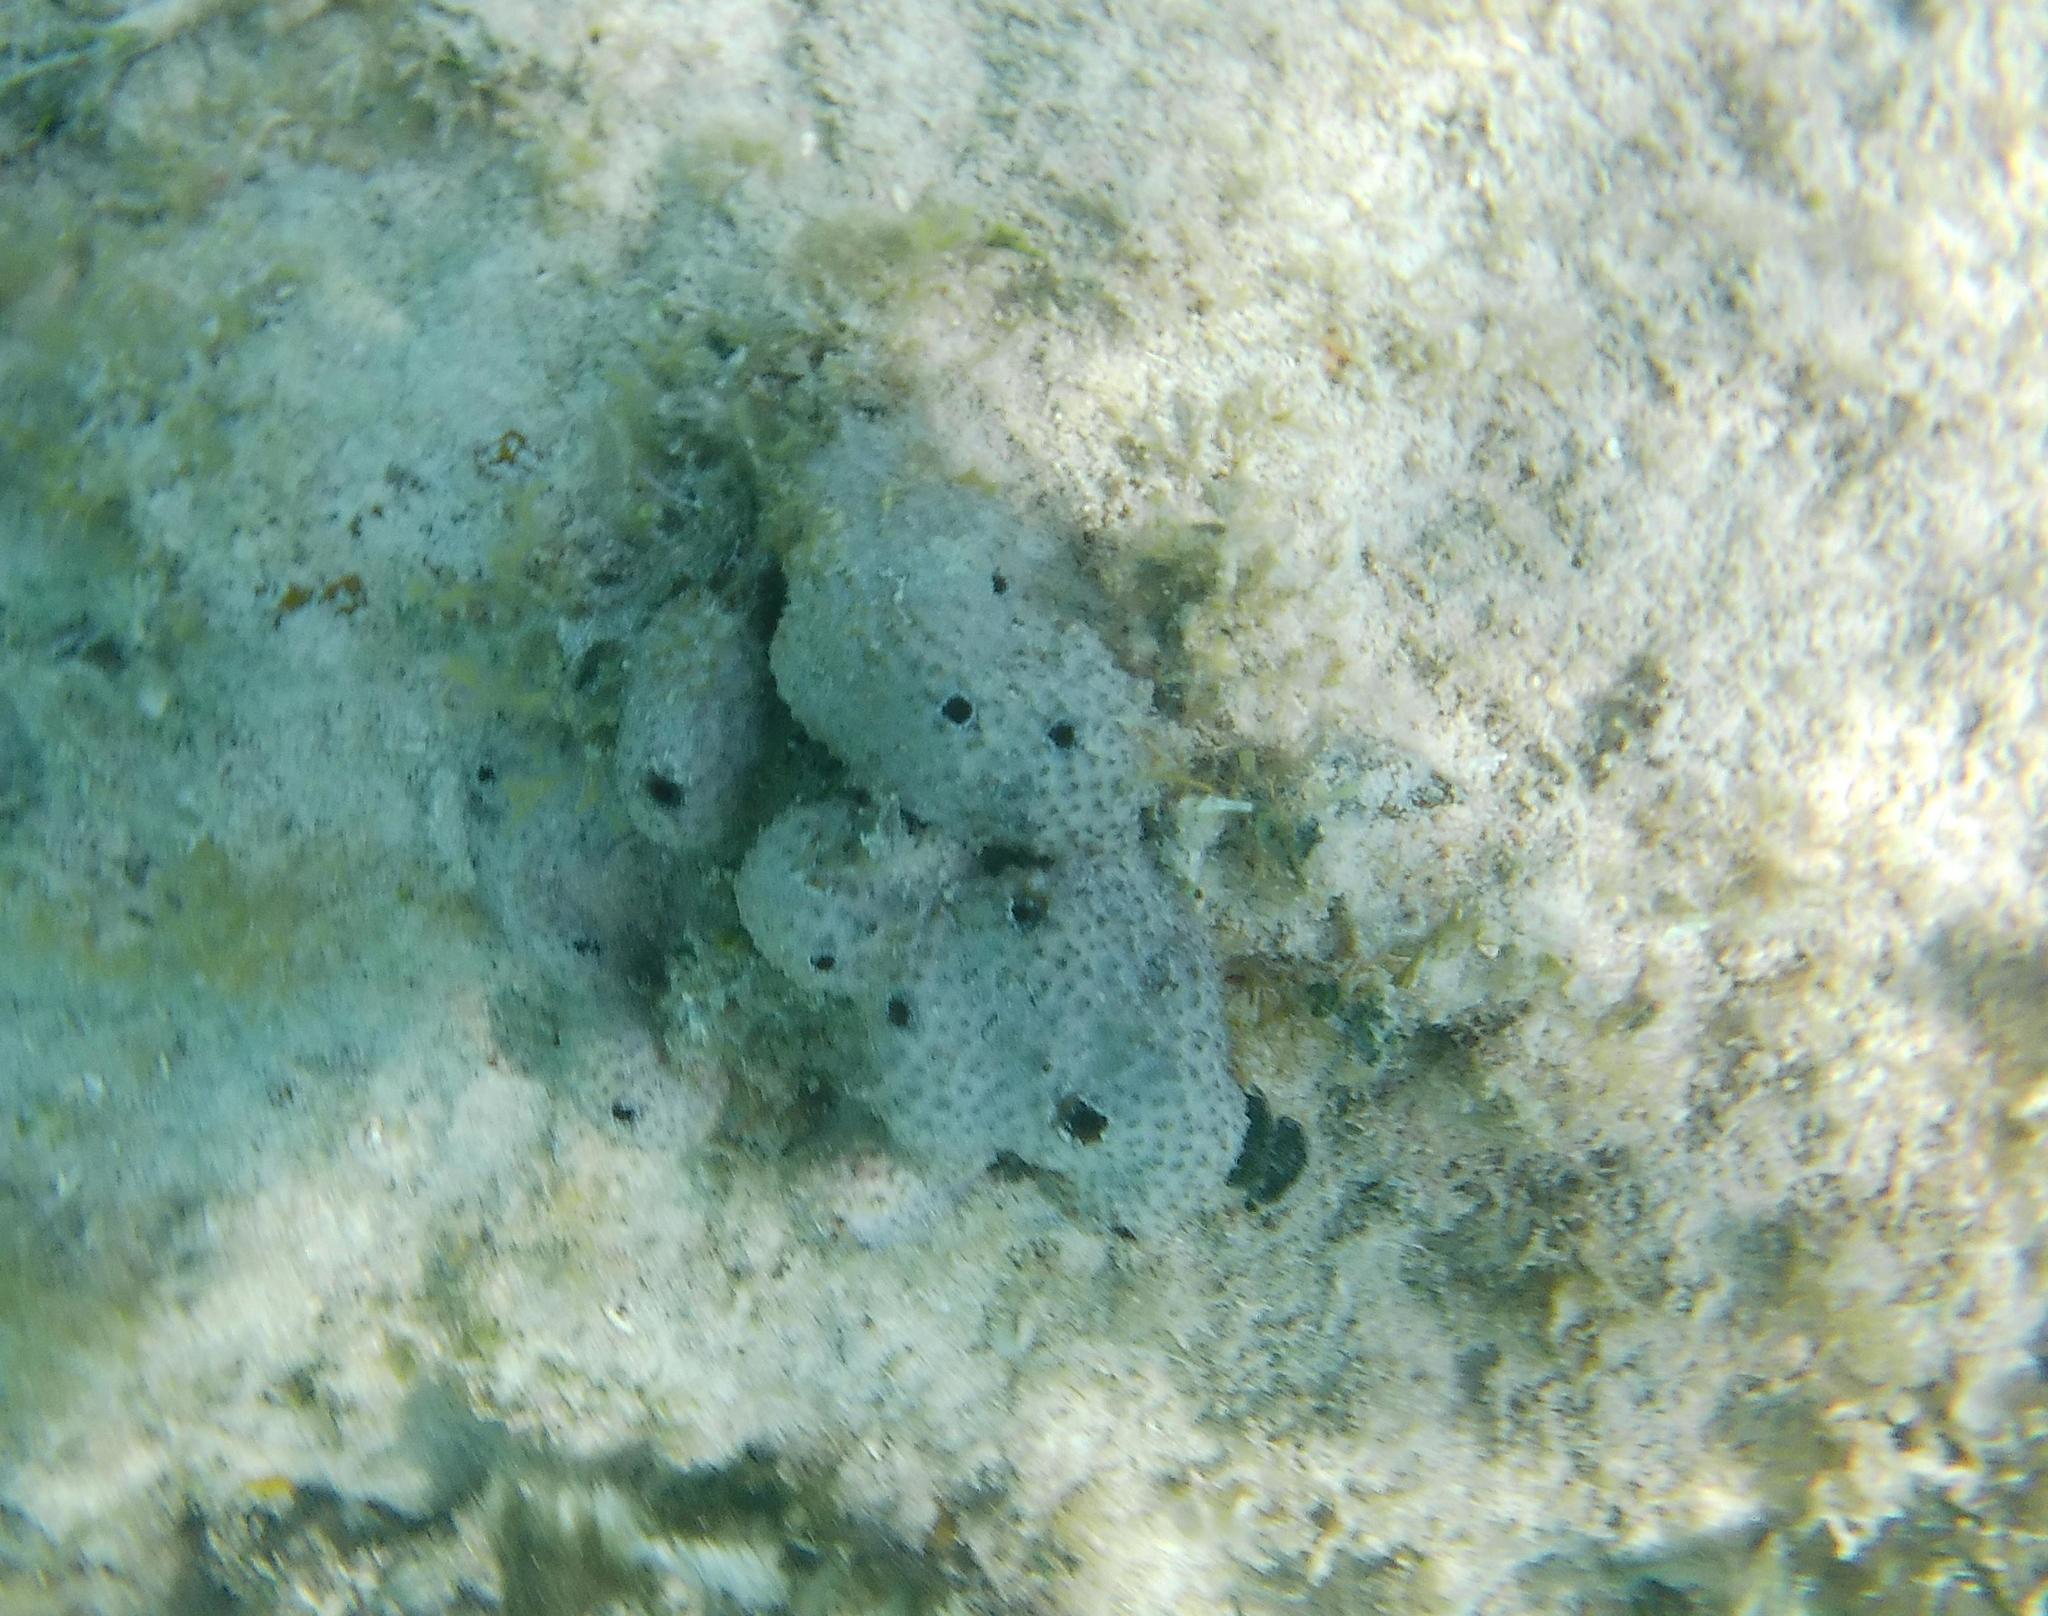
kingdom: Animalia
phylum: Porifera
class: Demospongiae
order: Dictyoceratida
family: Irciniidae
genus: Ircinia
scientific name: Ircinia felix
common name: Stinker sponge
